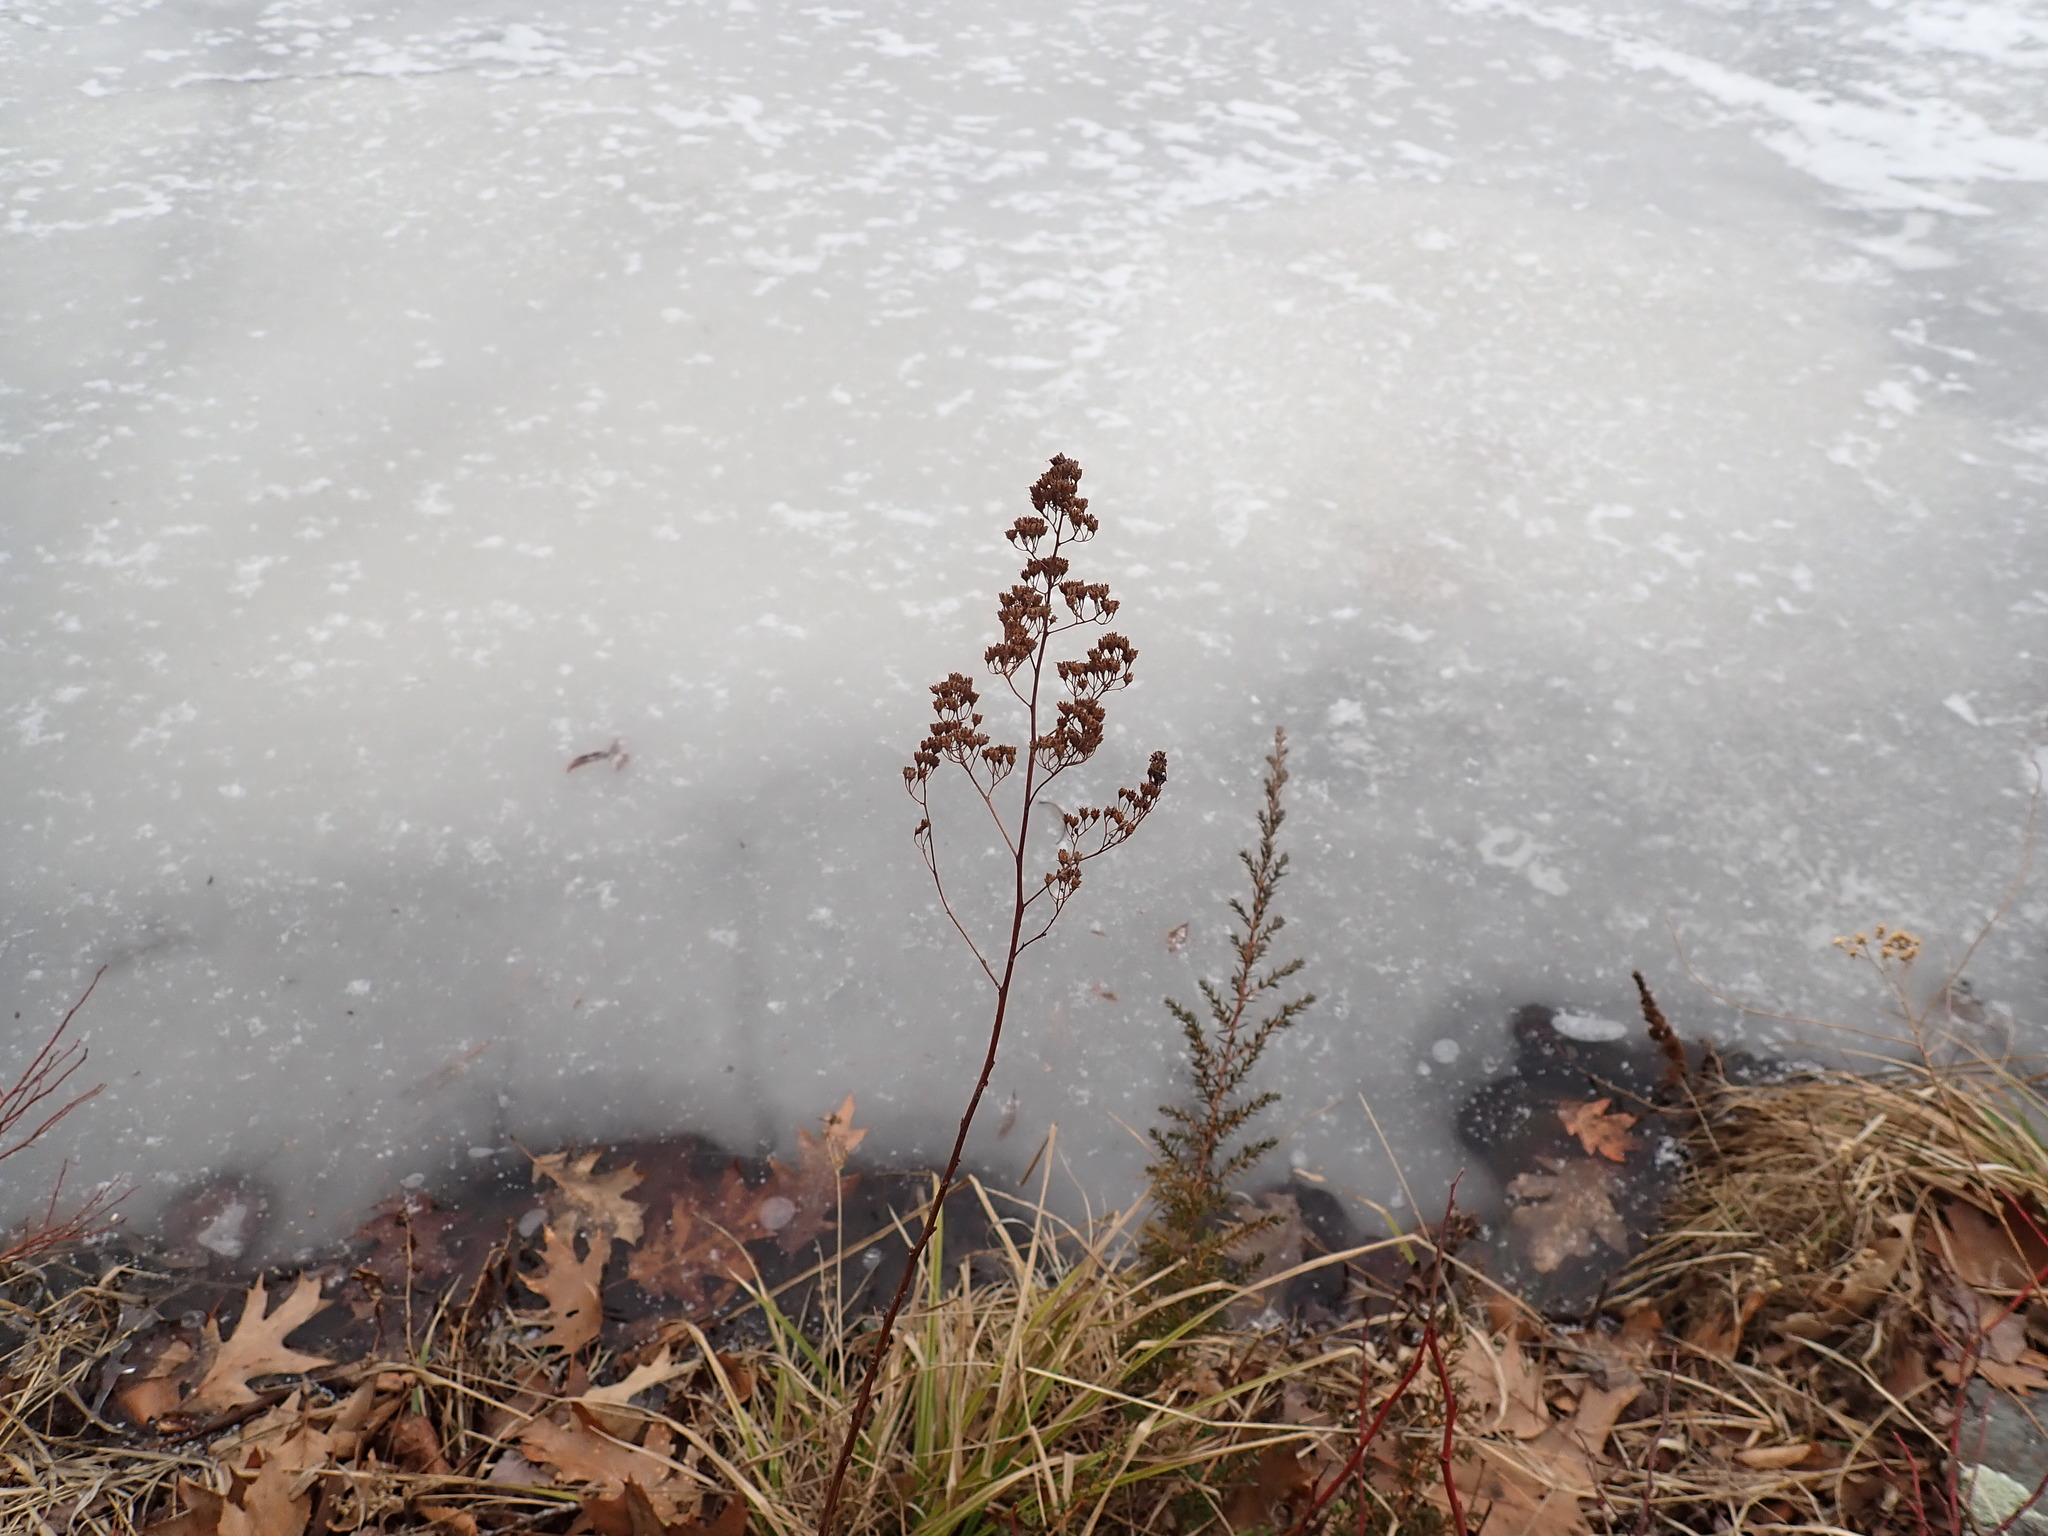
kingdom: Plantae
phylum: Tracheophyta
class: Magnoliopsida
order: Rosales
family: Rosaceae
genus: Spiraea
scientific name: Spiraea alba
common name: Pale bridewort
